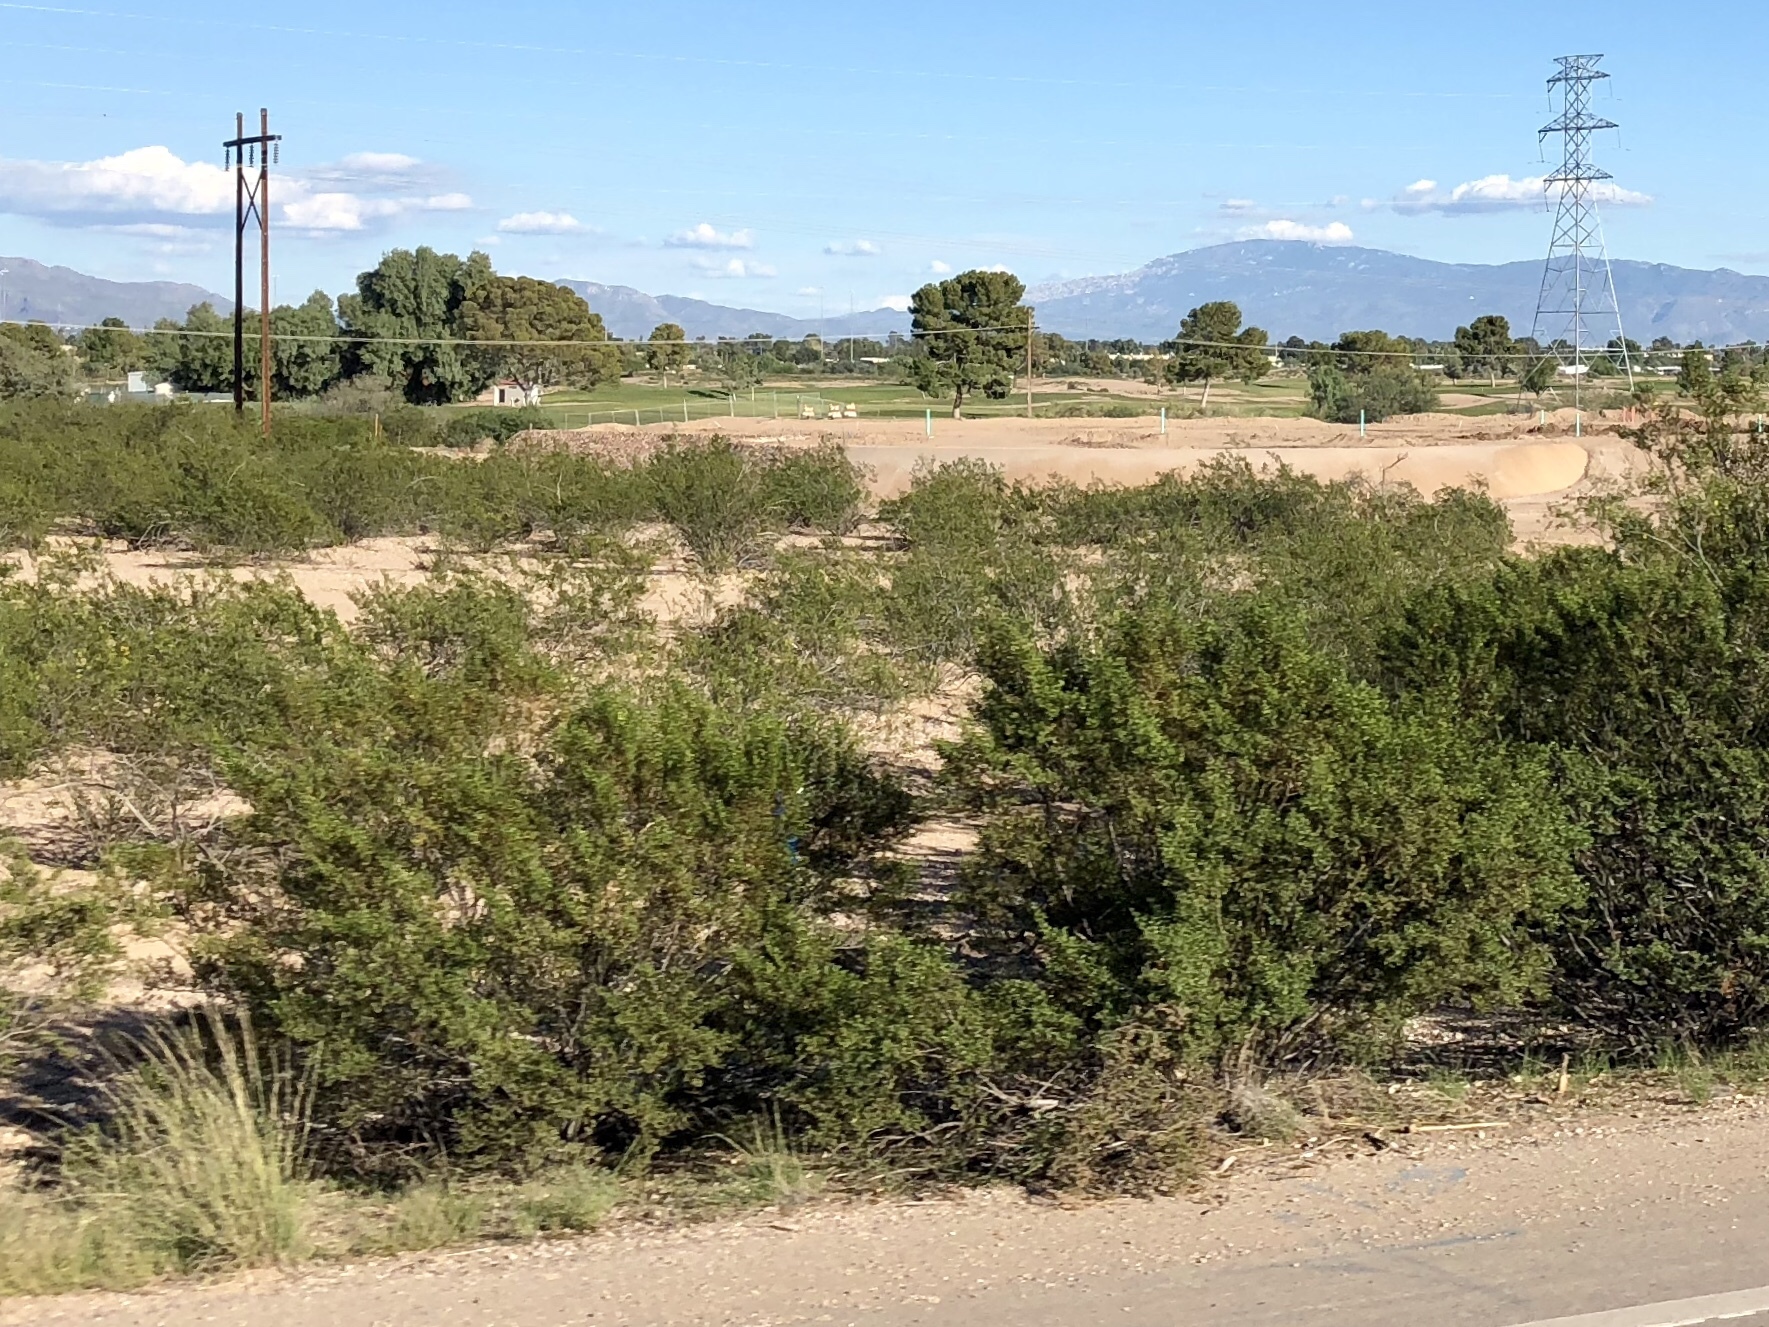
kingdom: Plantae
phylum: Tracheophyta
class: Magnoliopsida
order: Zygophyllales
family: Zygophyllaceae
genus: Larrea
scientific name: Larrea tridentata
